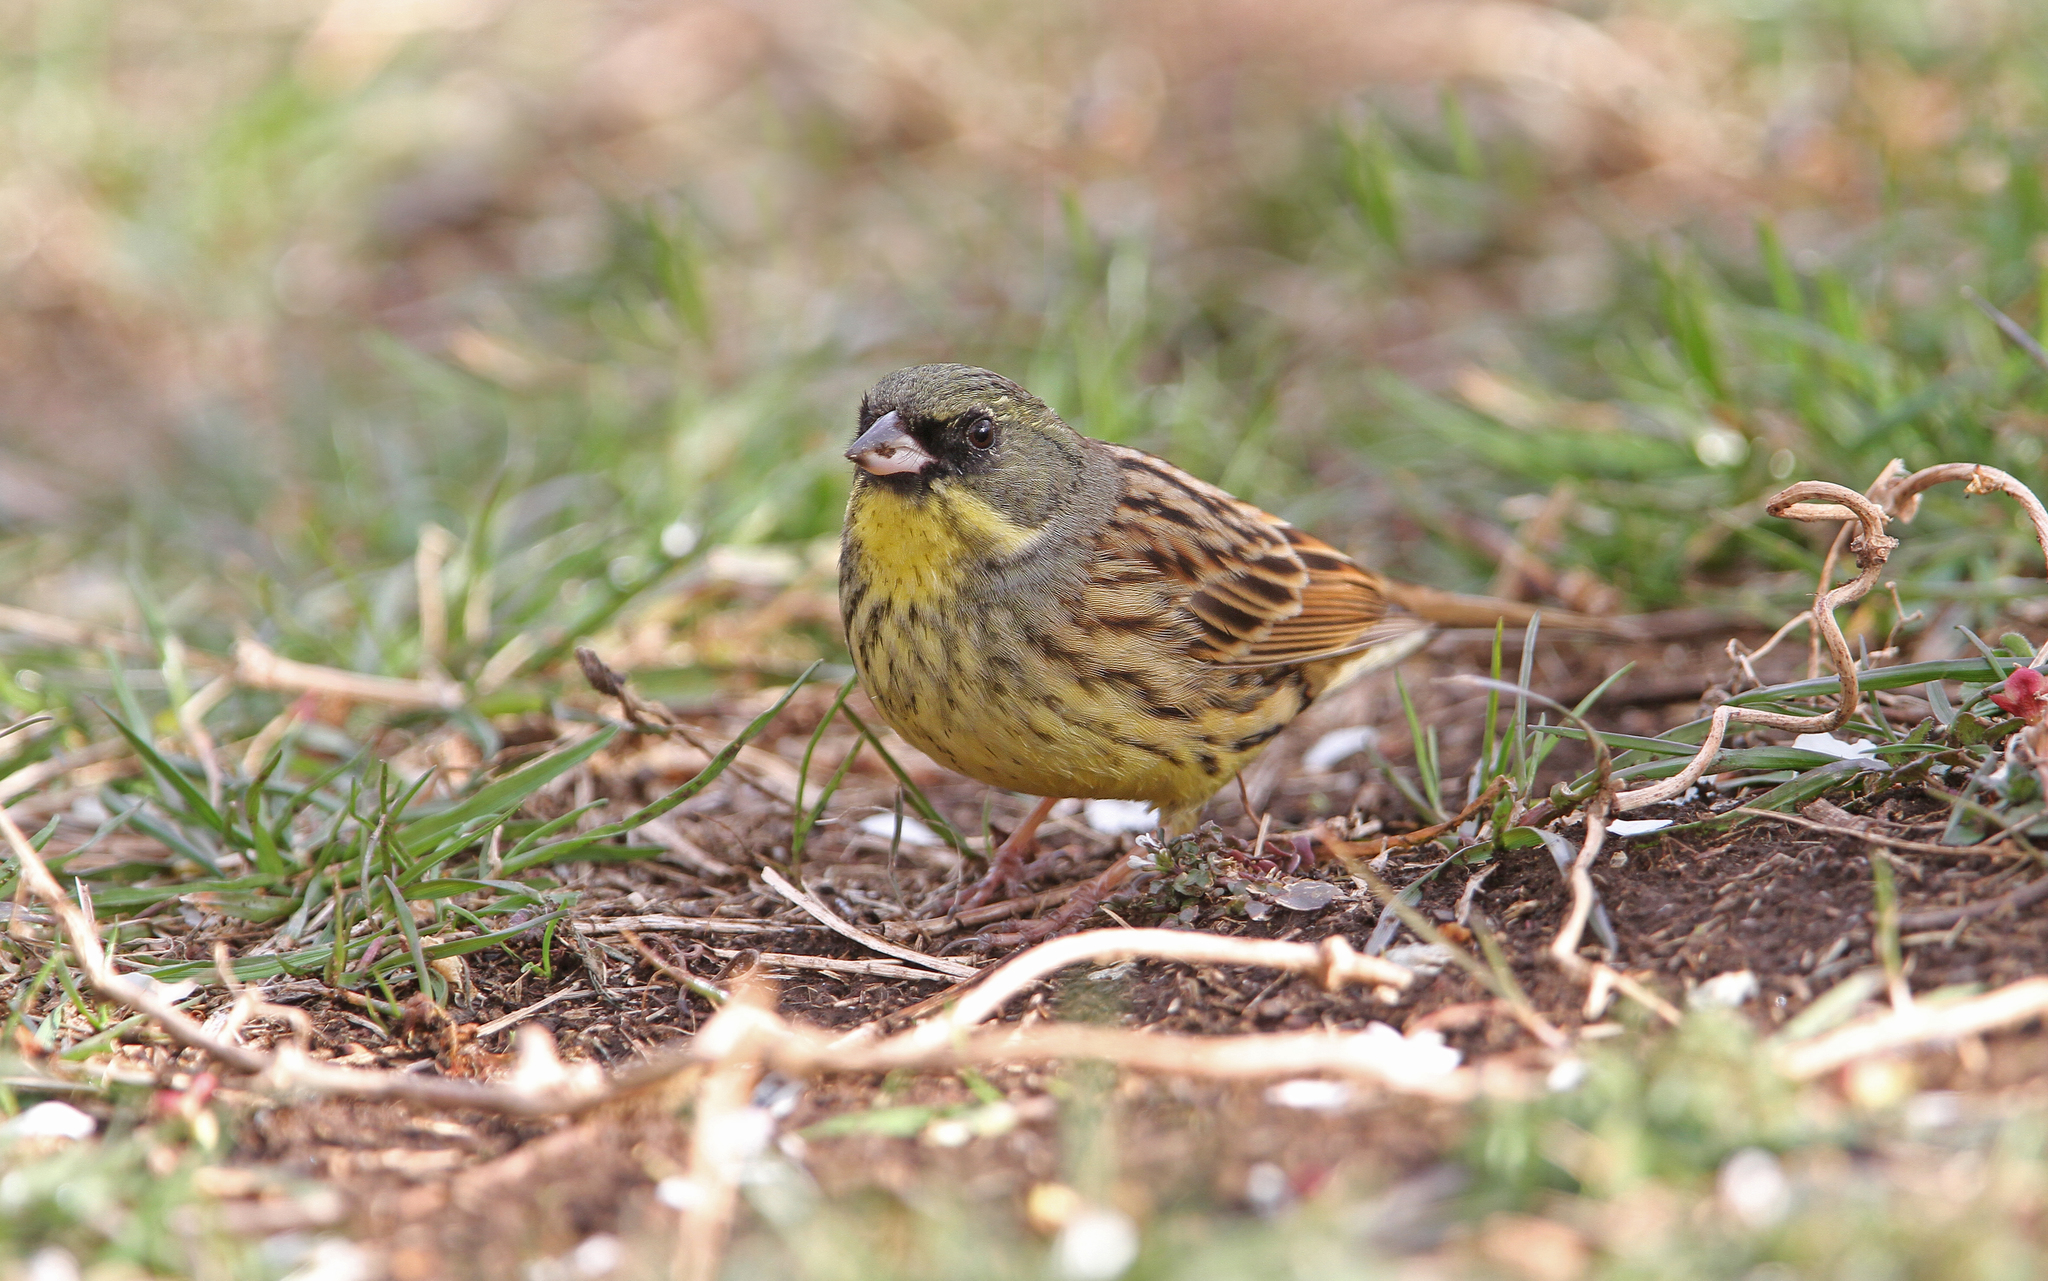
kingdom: Animalia
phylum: Chordata
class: Aves
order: Passeriformes
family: Emberizidae
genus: Emberiza
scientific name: Emberiza personata
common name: Masked bunting
